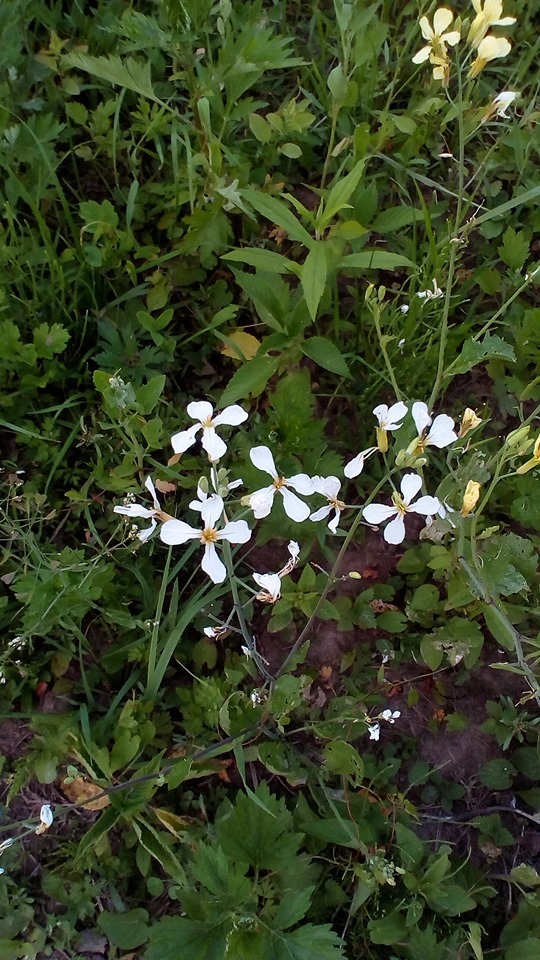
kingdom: Plantae
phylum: Tracheophyta
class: Magnoliopsida
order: Brassicales
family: Brassicaceae
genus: Raphanus
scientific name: Raphanus raphanistrum
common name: Wild radish
